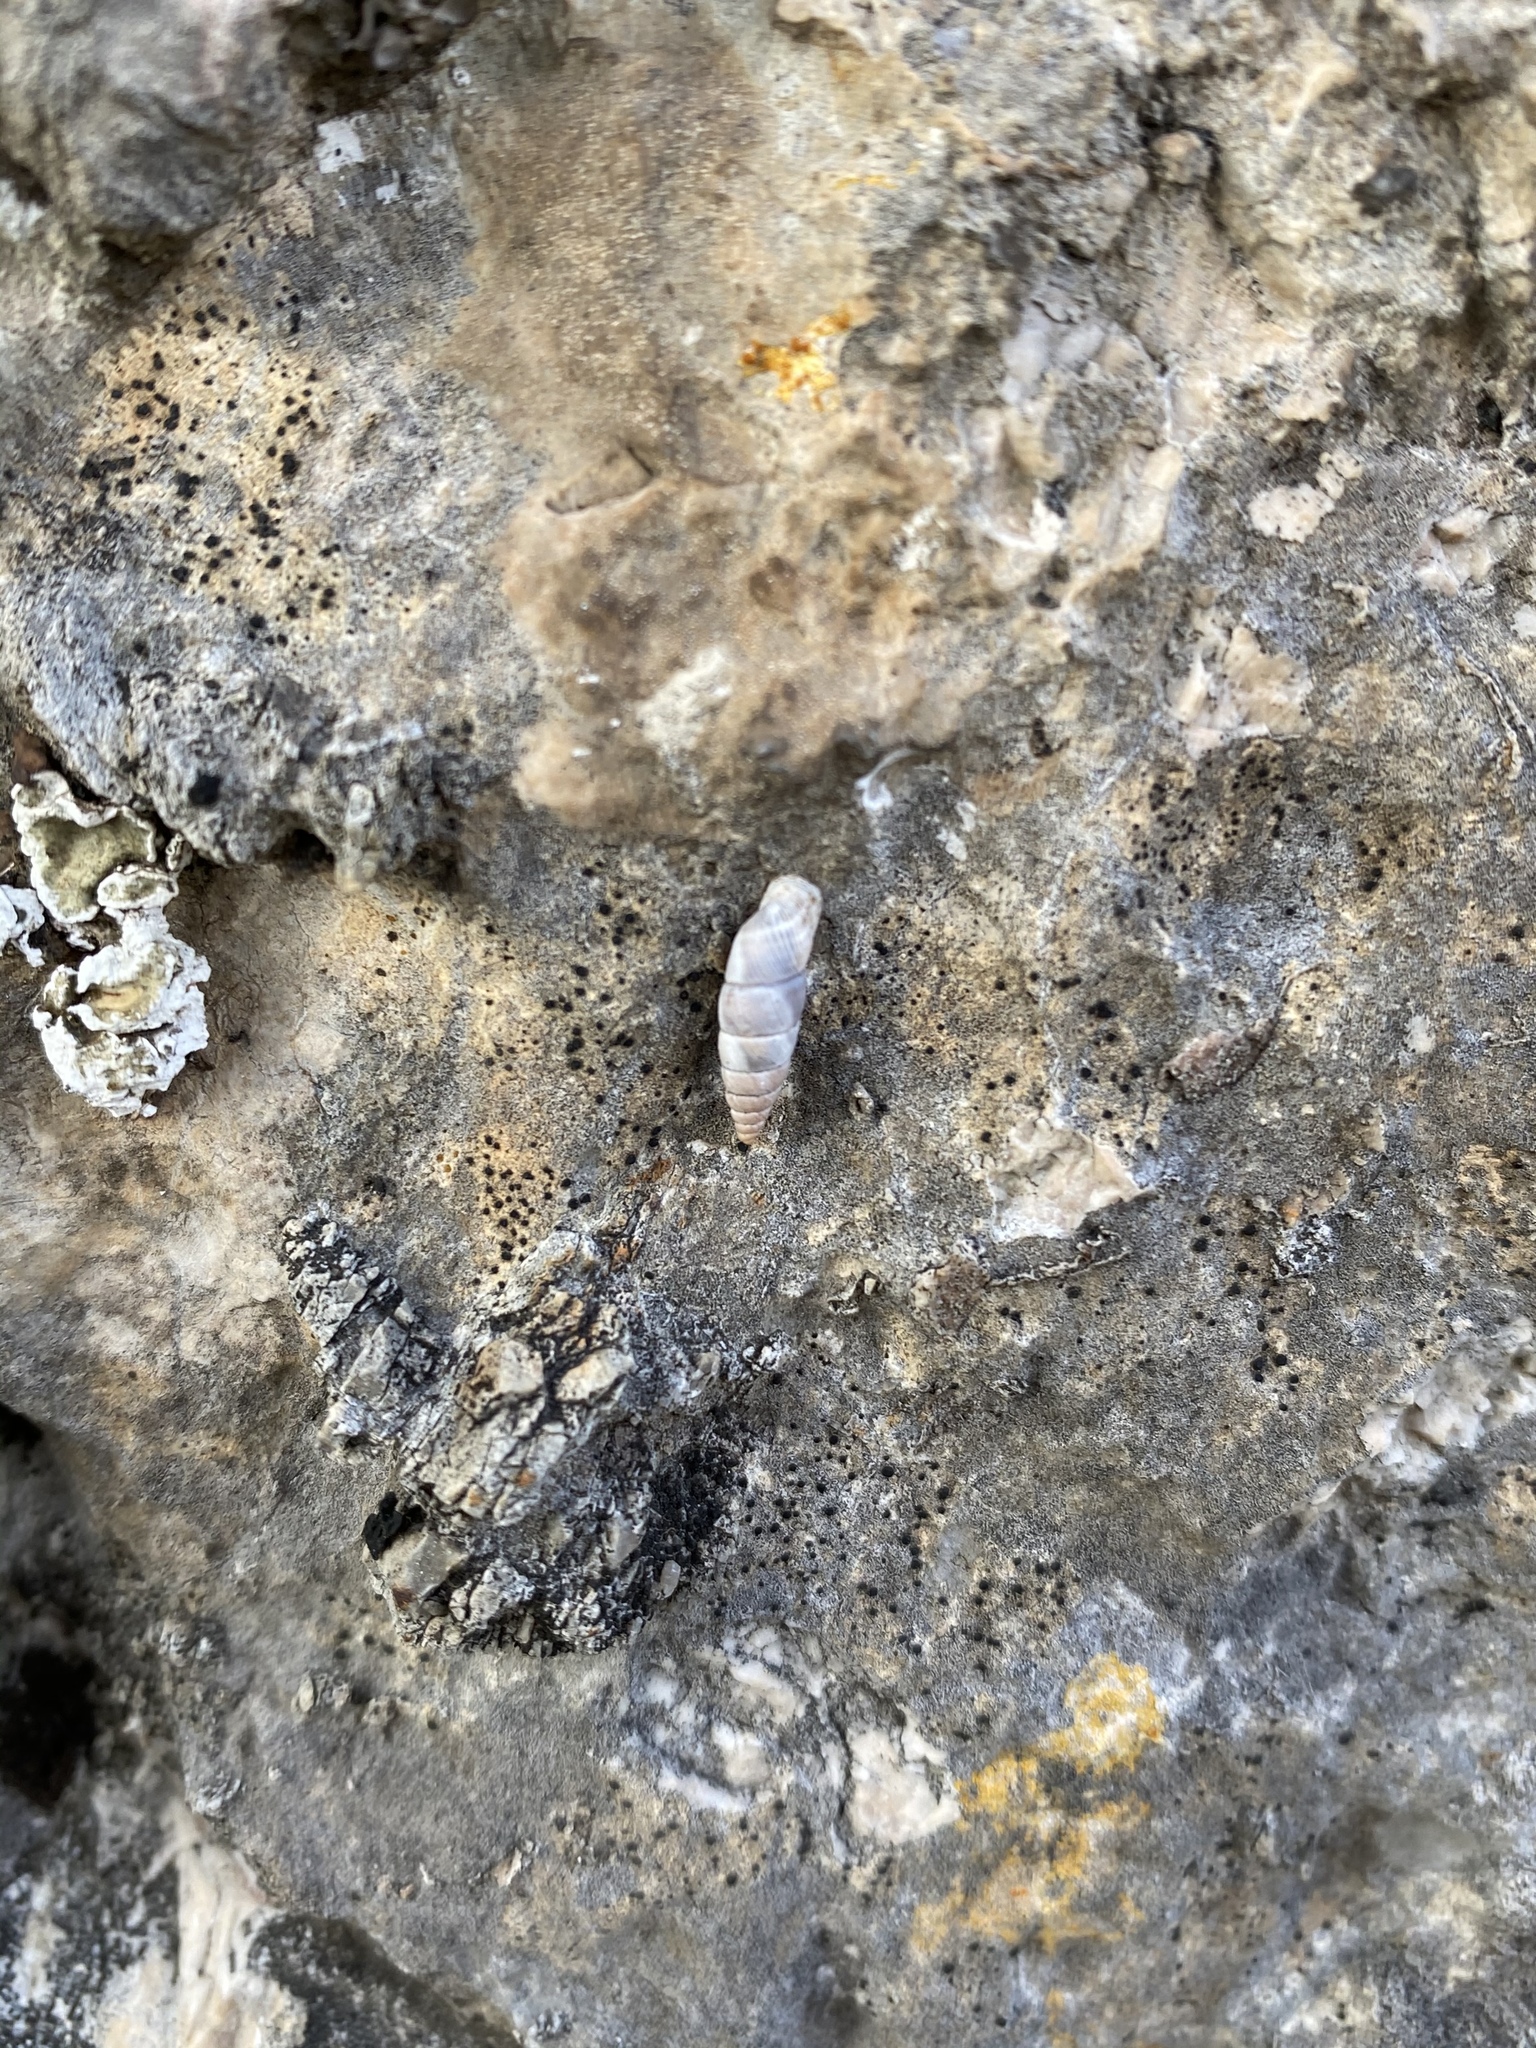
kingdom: Animalia
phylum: Mollusca
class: Gastropoda
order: Stylommatophora
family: Chondrinidae
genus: Solatopupa
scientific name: Solatopupa juliana
